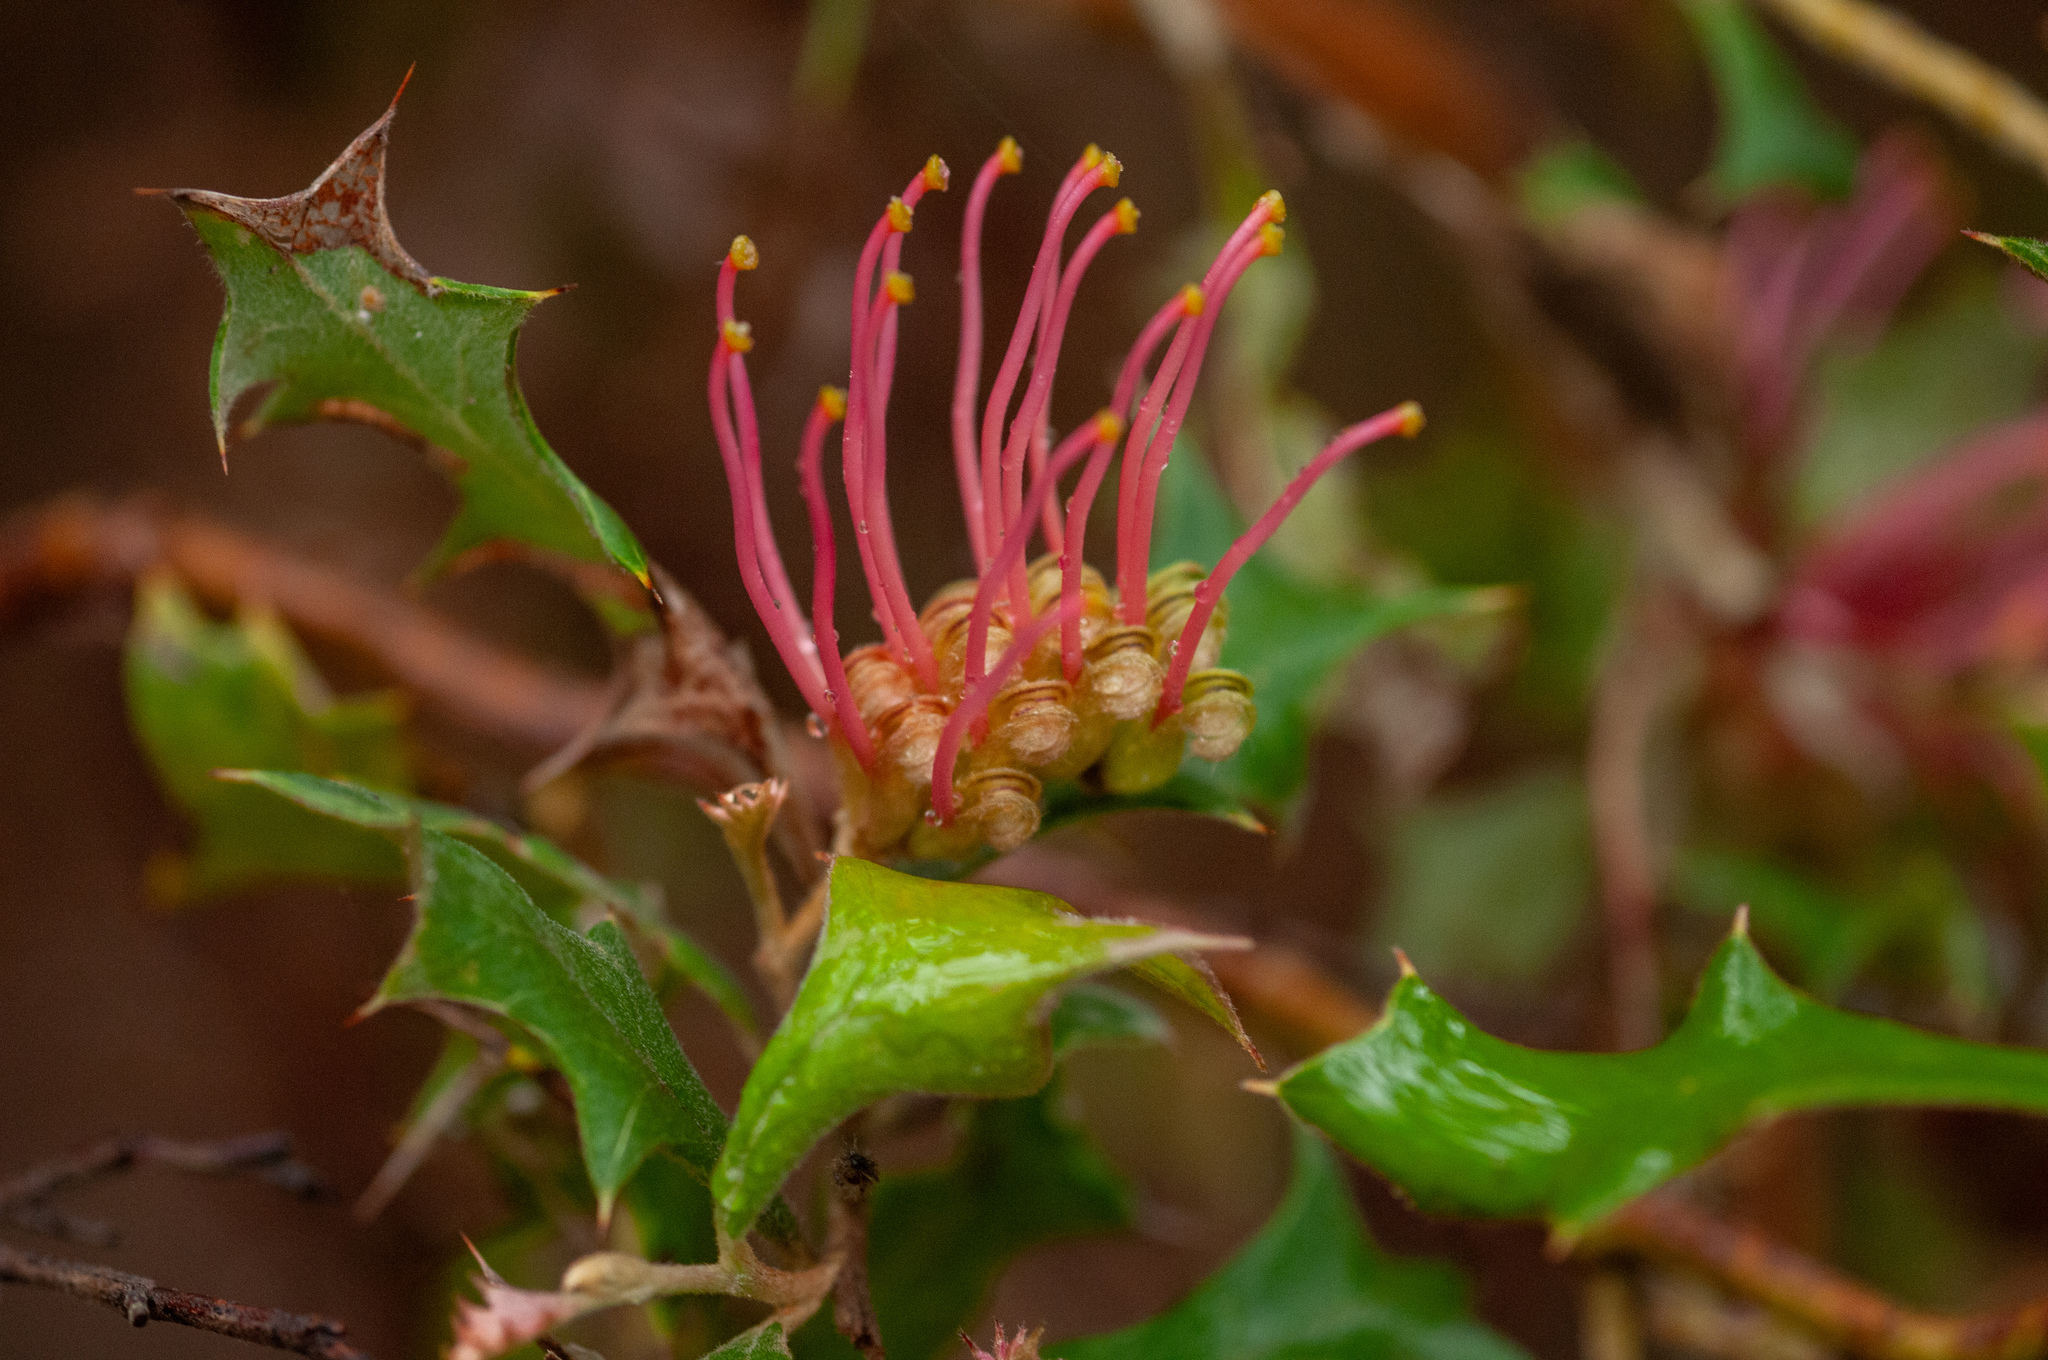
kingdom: Plantae
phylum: Tracheophyta
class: Magnoliopsida
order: Proteales
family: Proteaceae
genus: Grevillea
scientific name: Grevillea aquifolium
